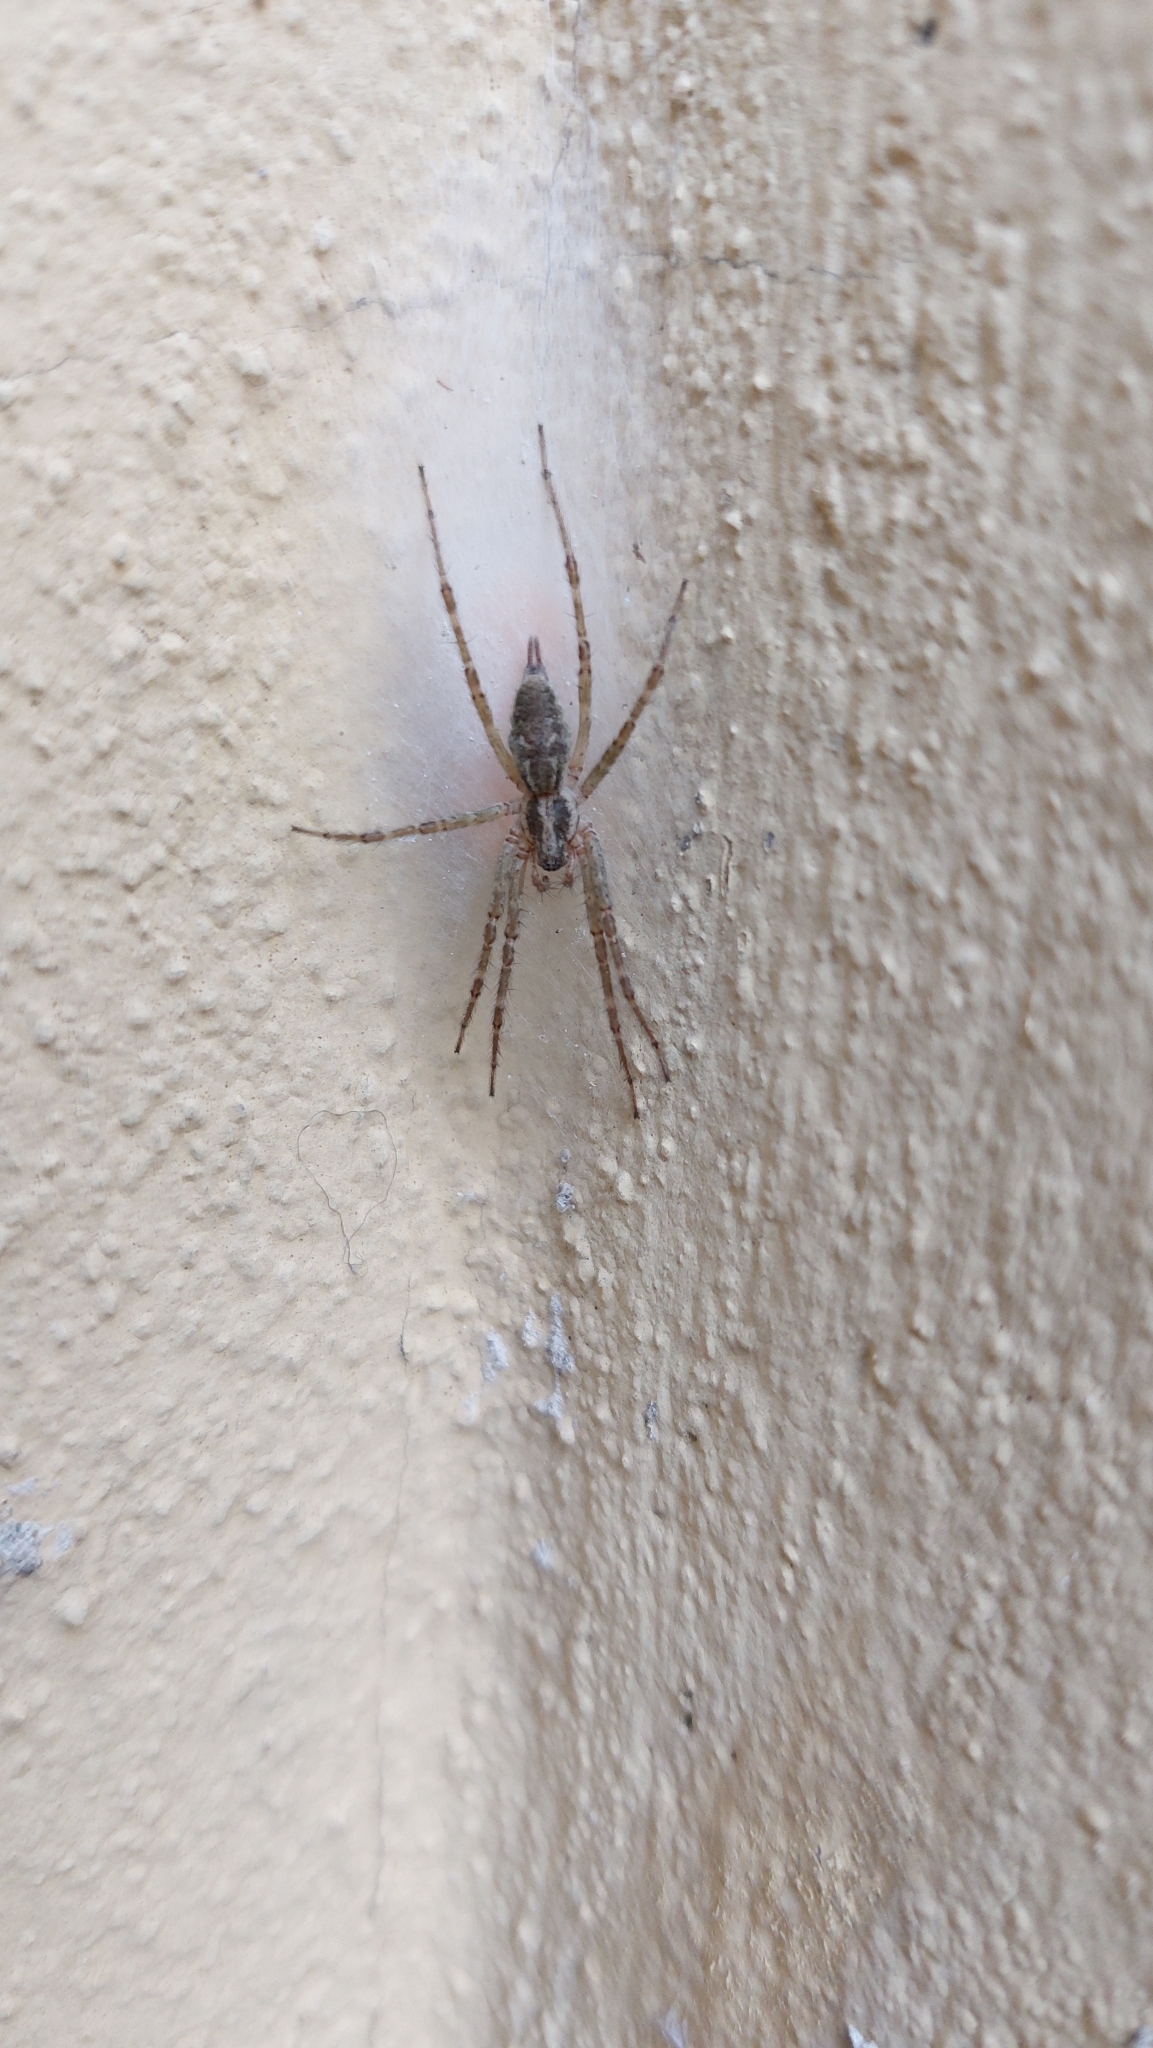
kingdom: Animalia
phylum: Arthropoda
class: Arachnida
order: Araneae
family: Agelenidae
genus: Allagelena
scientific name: Allagelena gracilens
